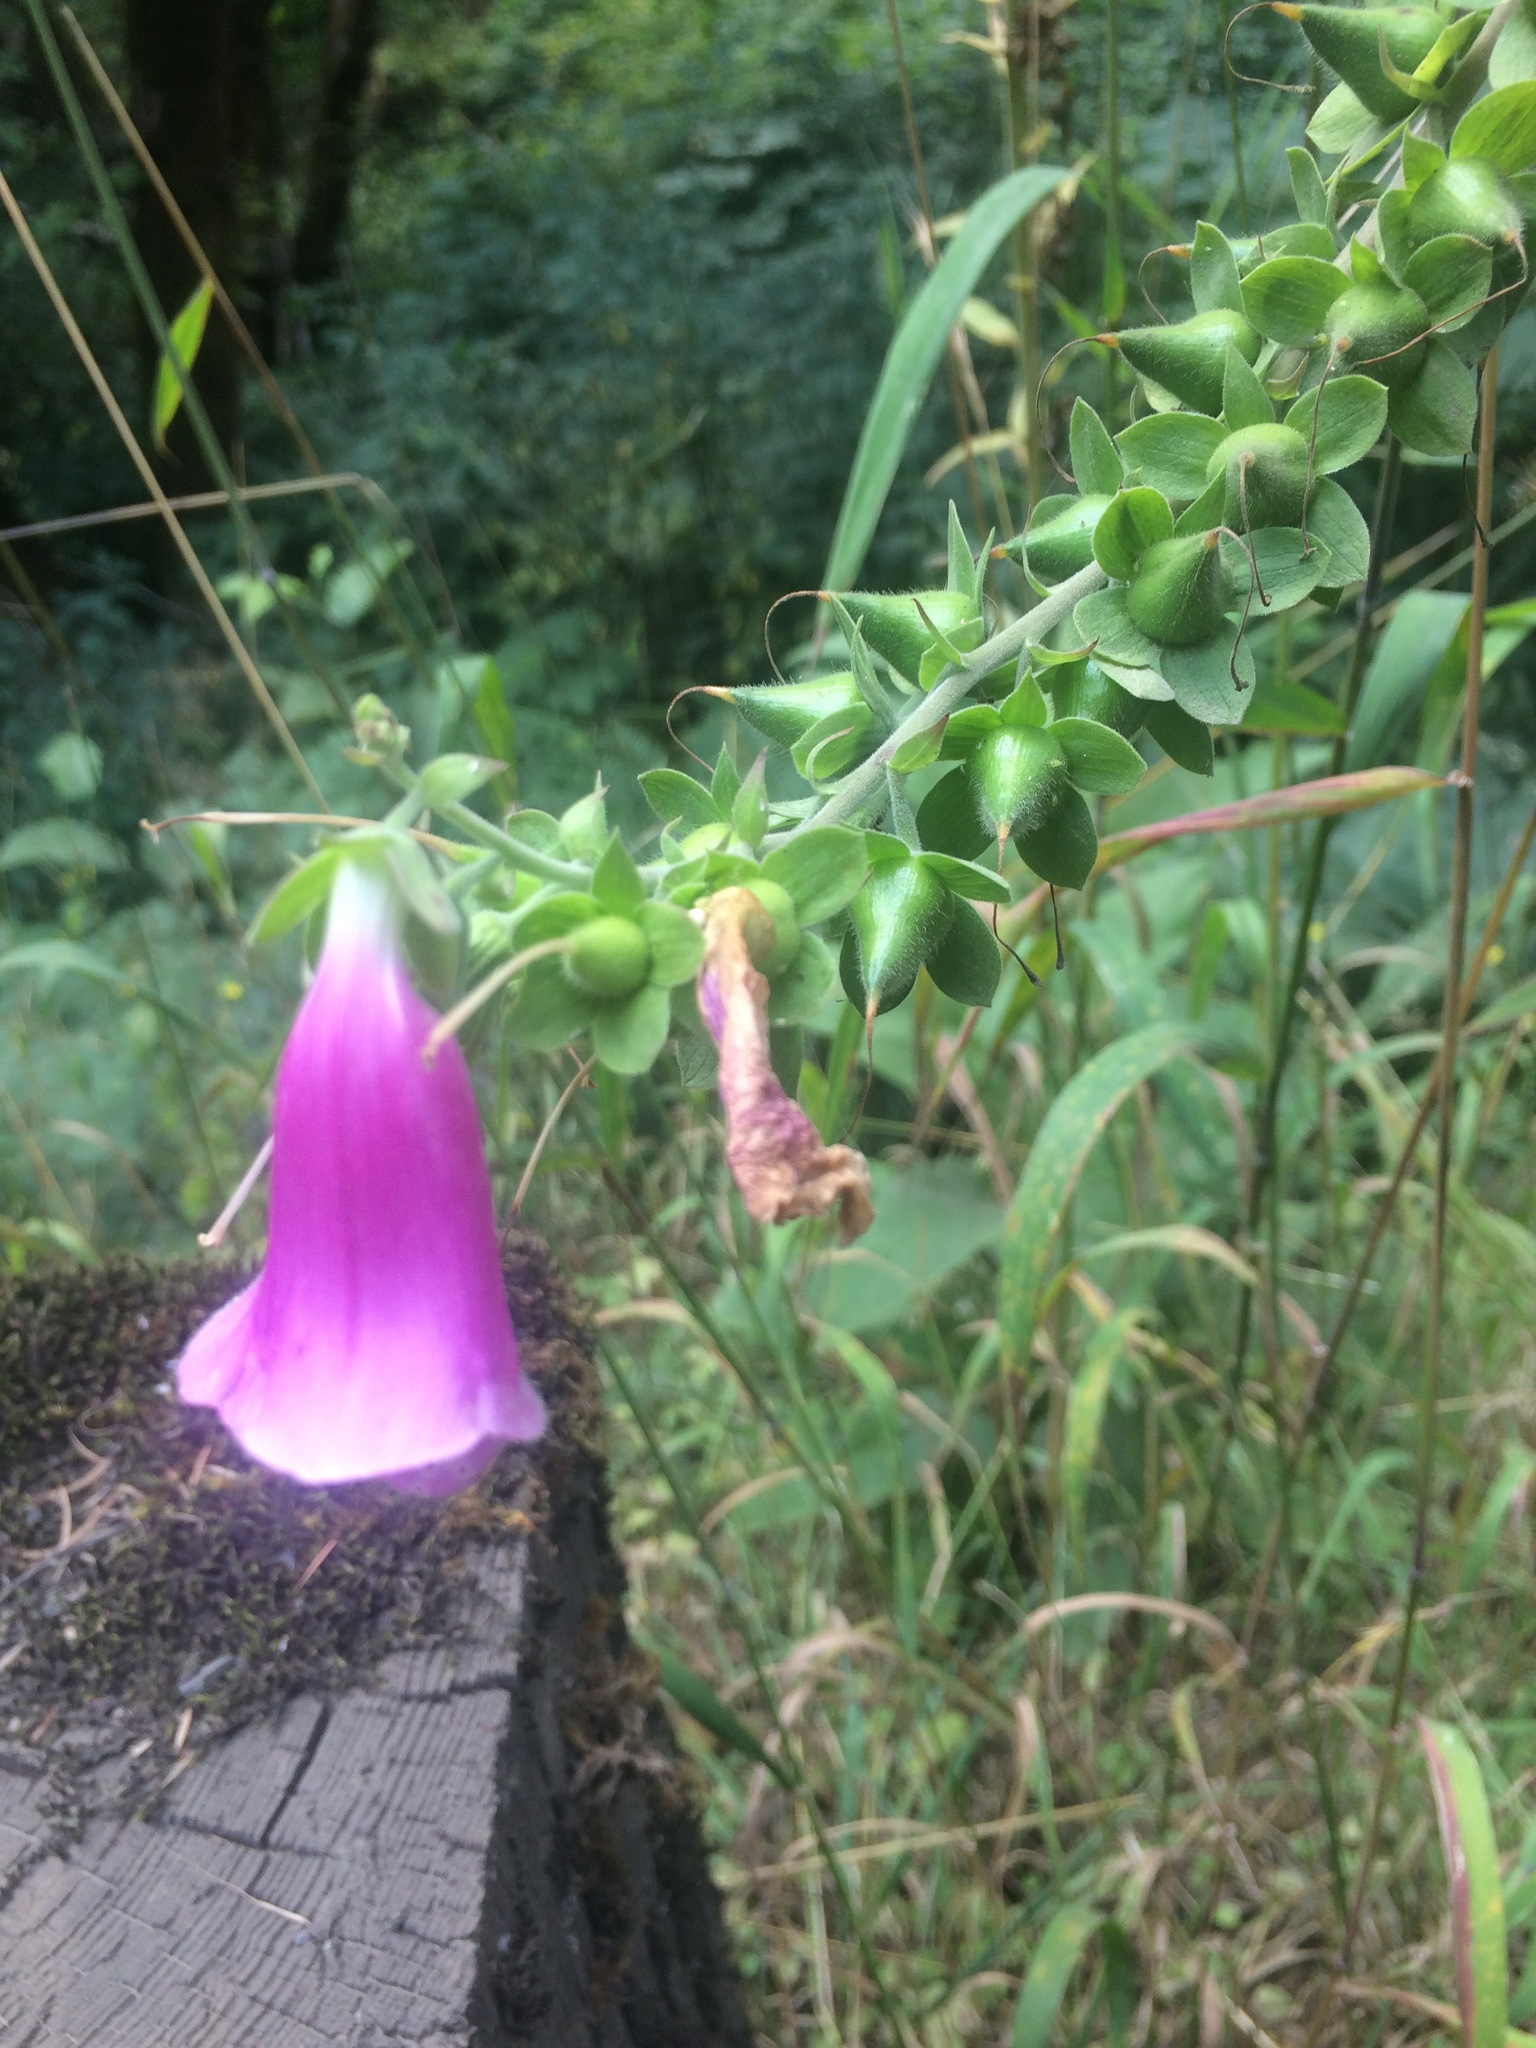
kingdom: Plantae
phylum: Tracheophyta
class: Magnoliopsida
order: Lamiales
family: Plantaginaceae
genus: Digitalis
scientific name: Digitalis purpurea
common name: Foxglove
